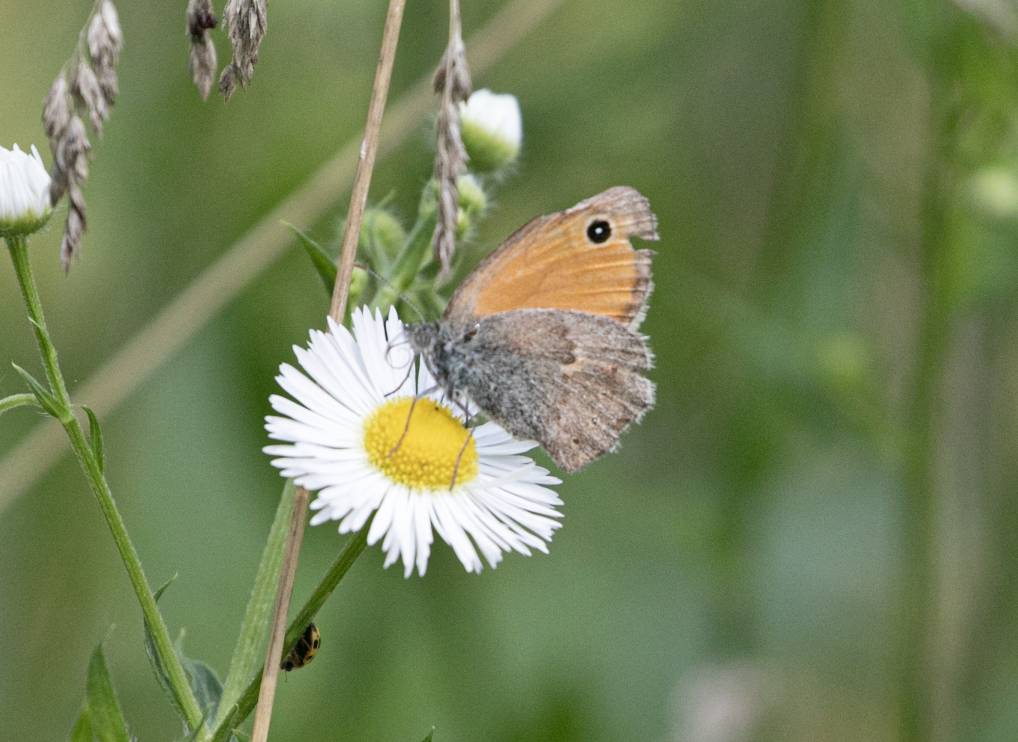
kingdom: Animalia
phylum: Arthropoda
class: Insecta
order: Lepidoptera
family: Nymphalidae
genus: Coenonympha
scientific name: Coenonympha pamphilus
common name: Small heath
